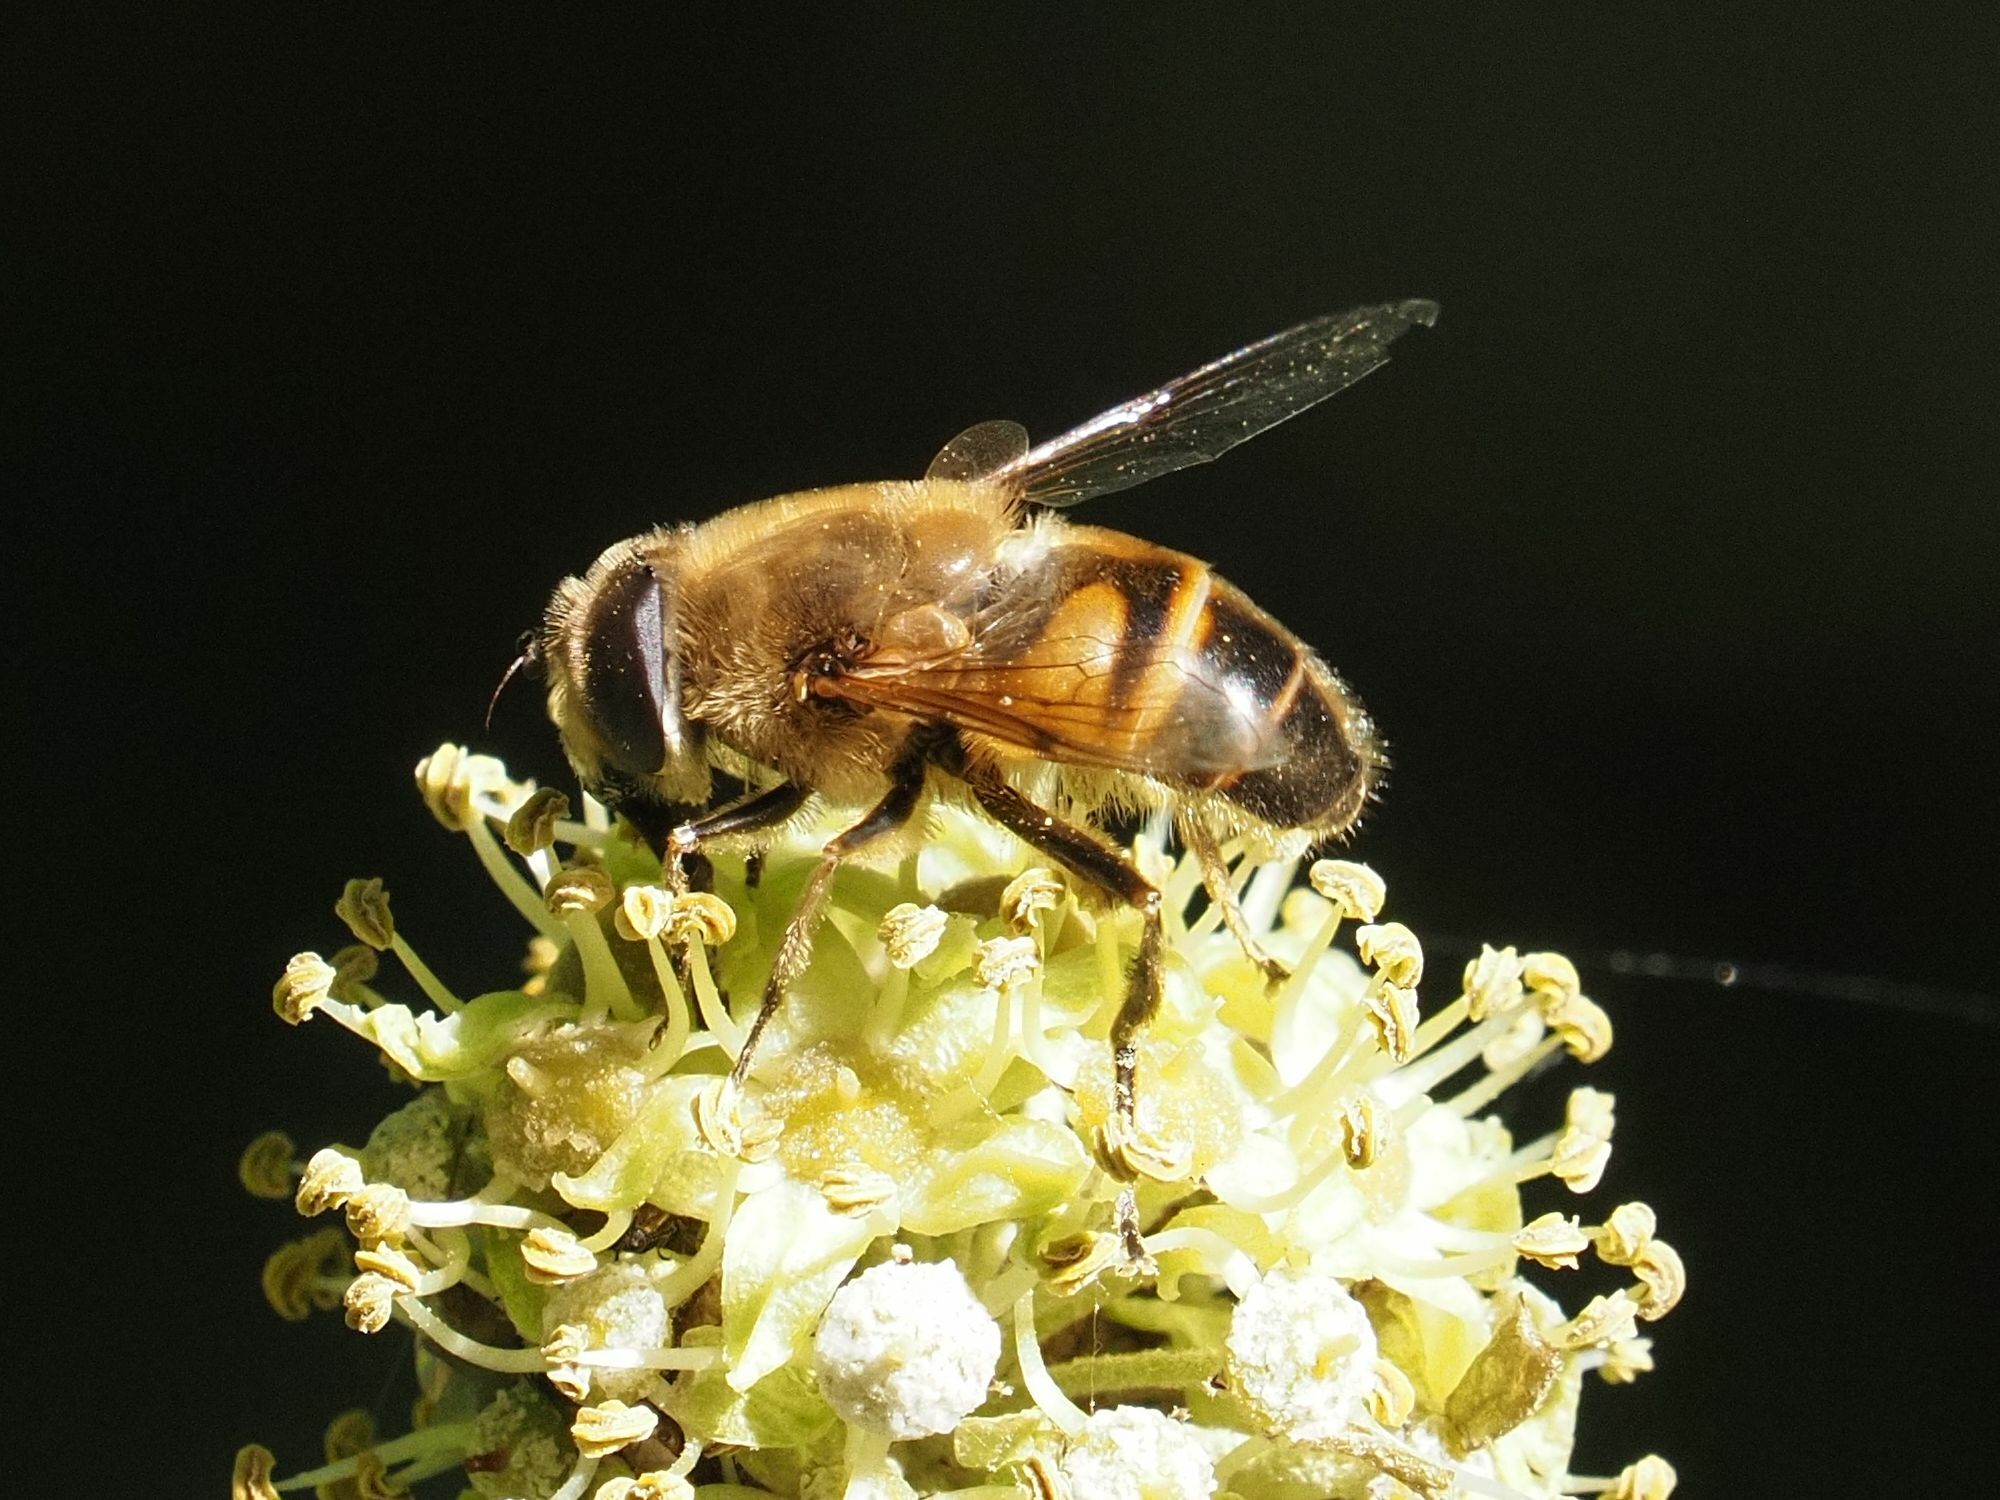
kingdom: Animalia
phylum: Arthropoda
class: Insecta
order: Diptera
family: Syrphidae
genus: Eristalis
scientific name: Eristalis tenax
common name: Drone fly
